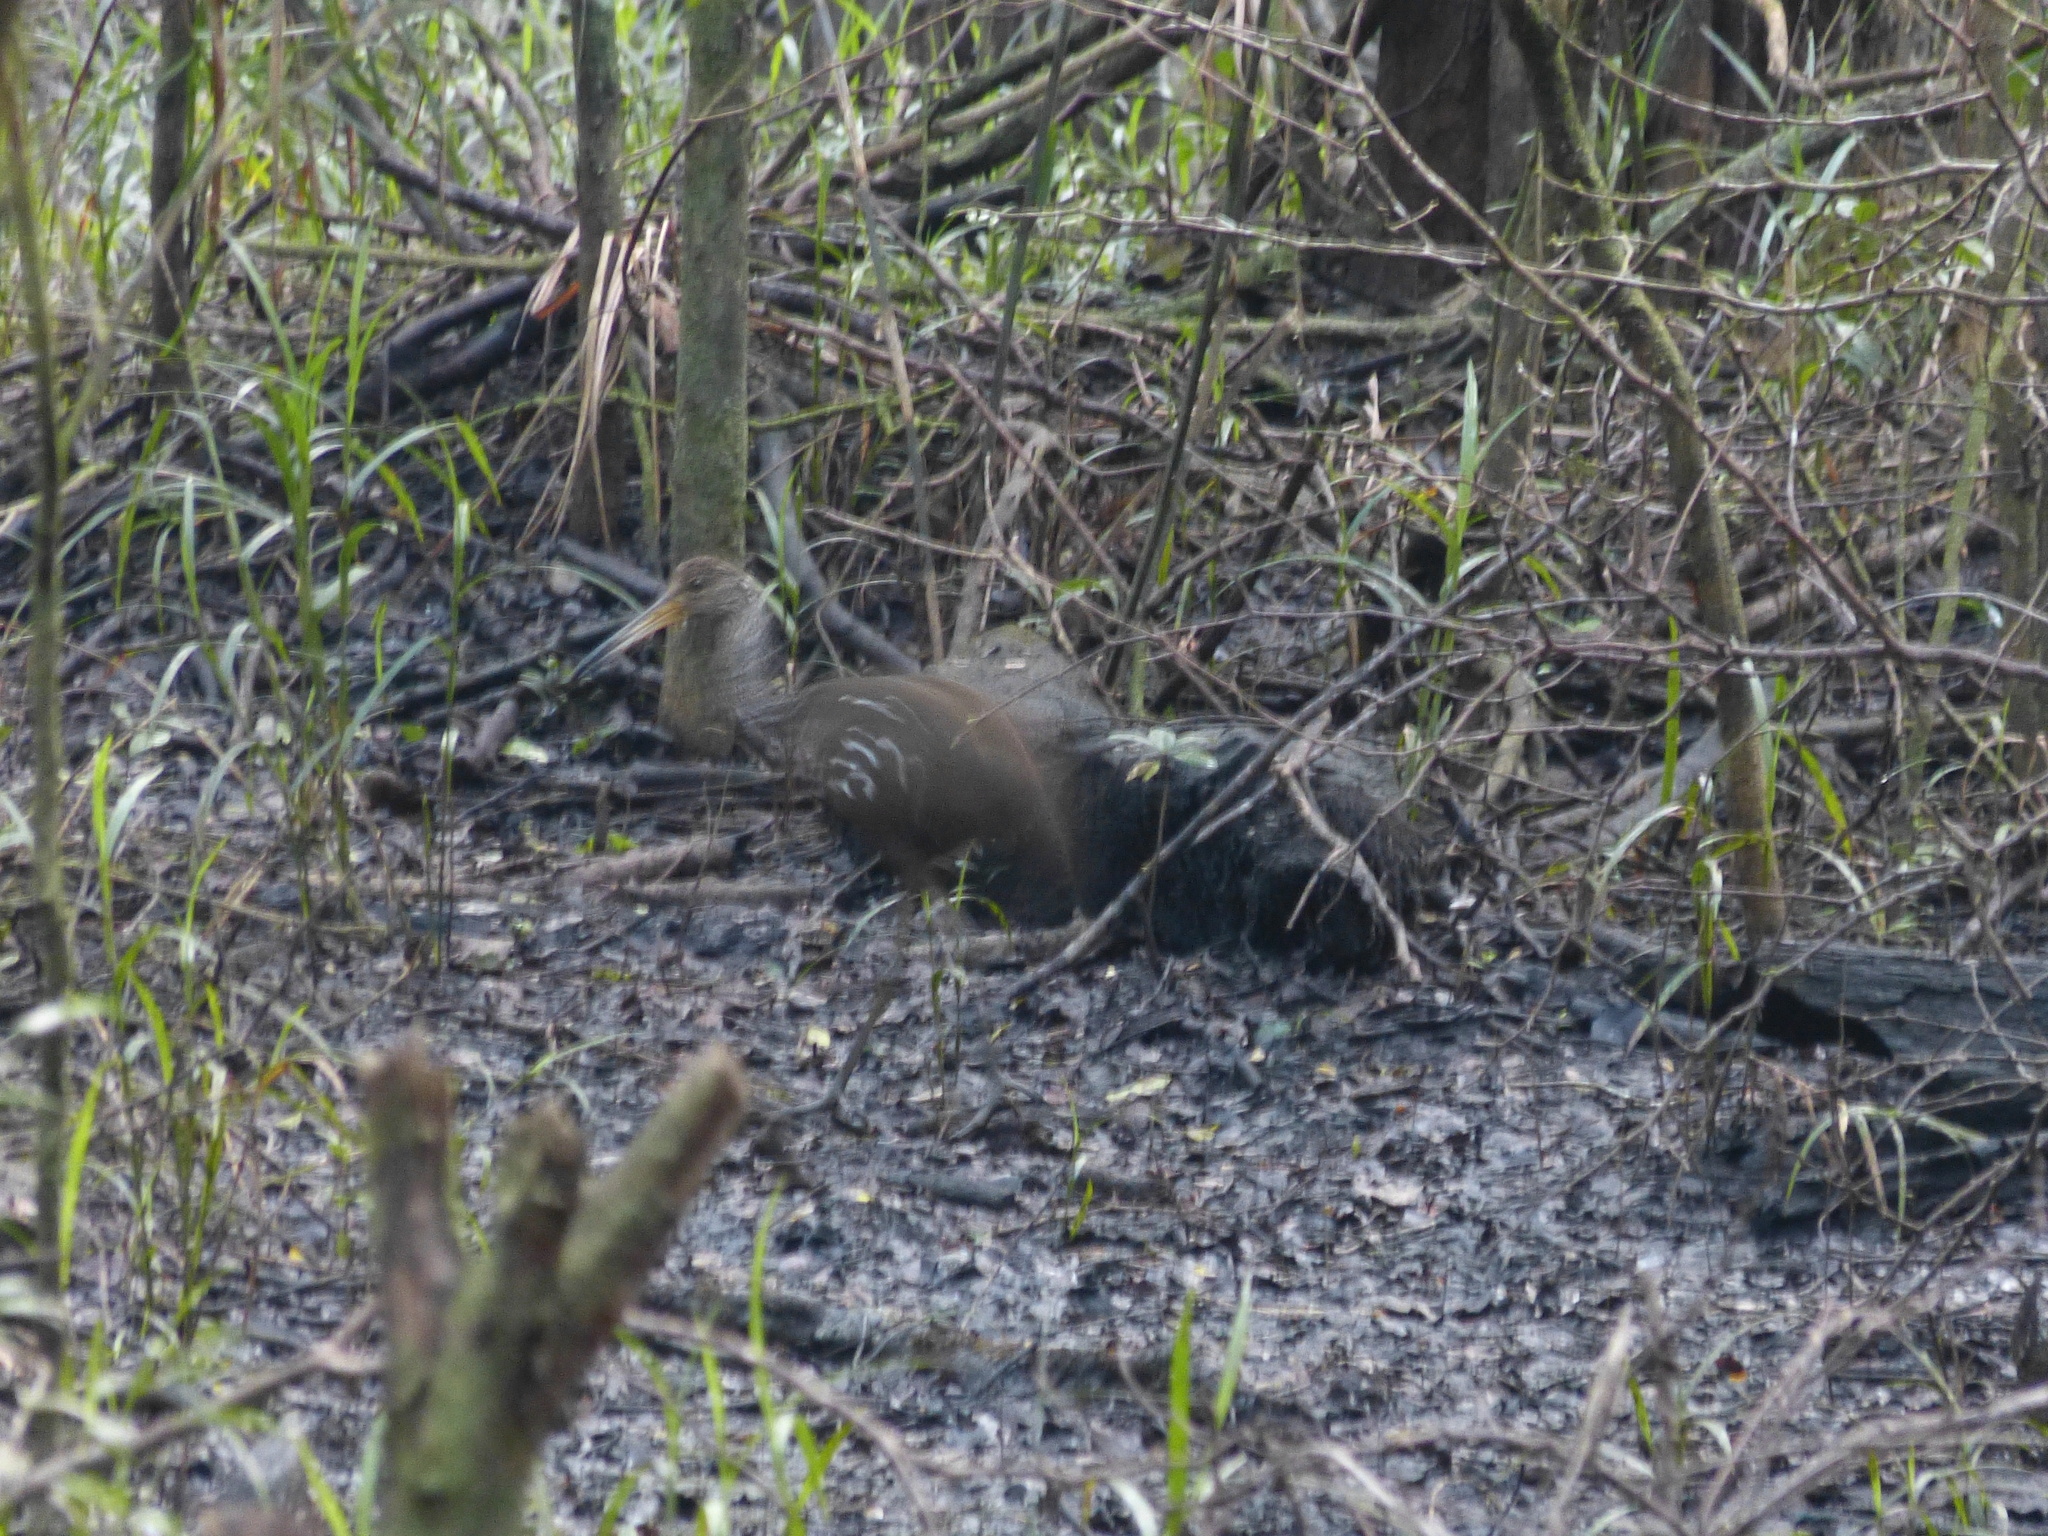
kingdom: Animalia
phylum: Chordata
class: Aves
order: Gruiformes
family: Aramidae
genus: Aramus
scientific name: Aramus guarauna
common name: Limpkin
